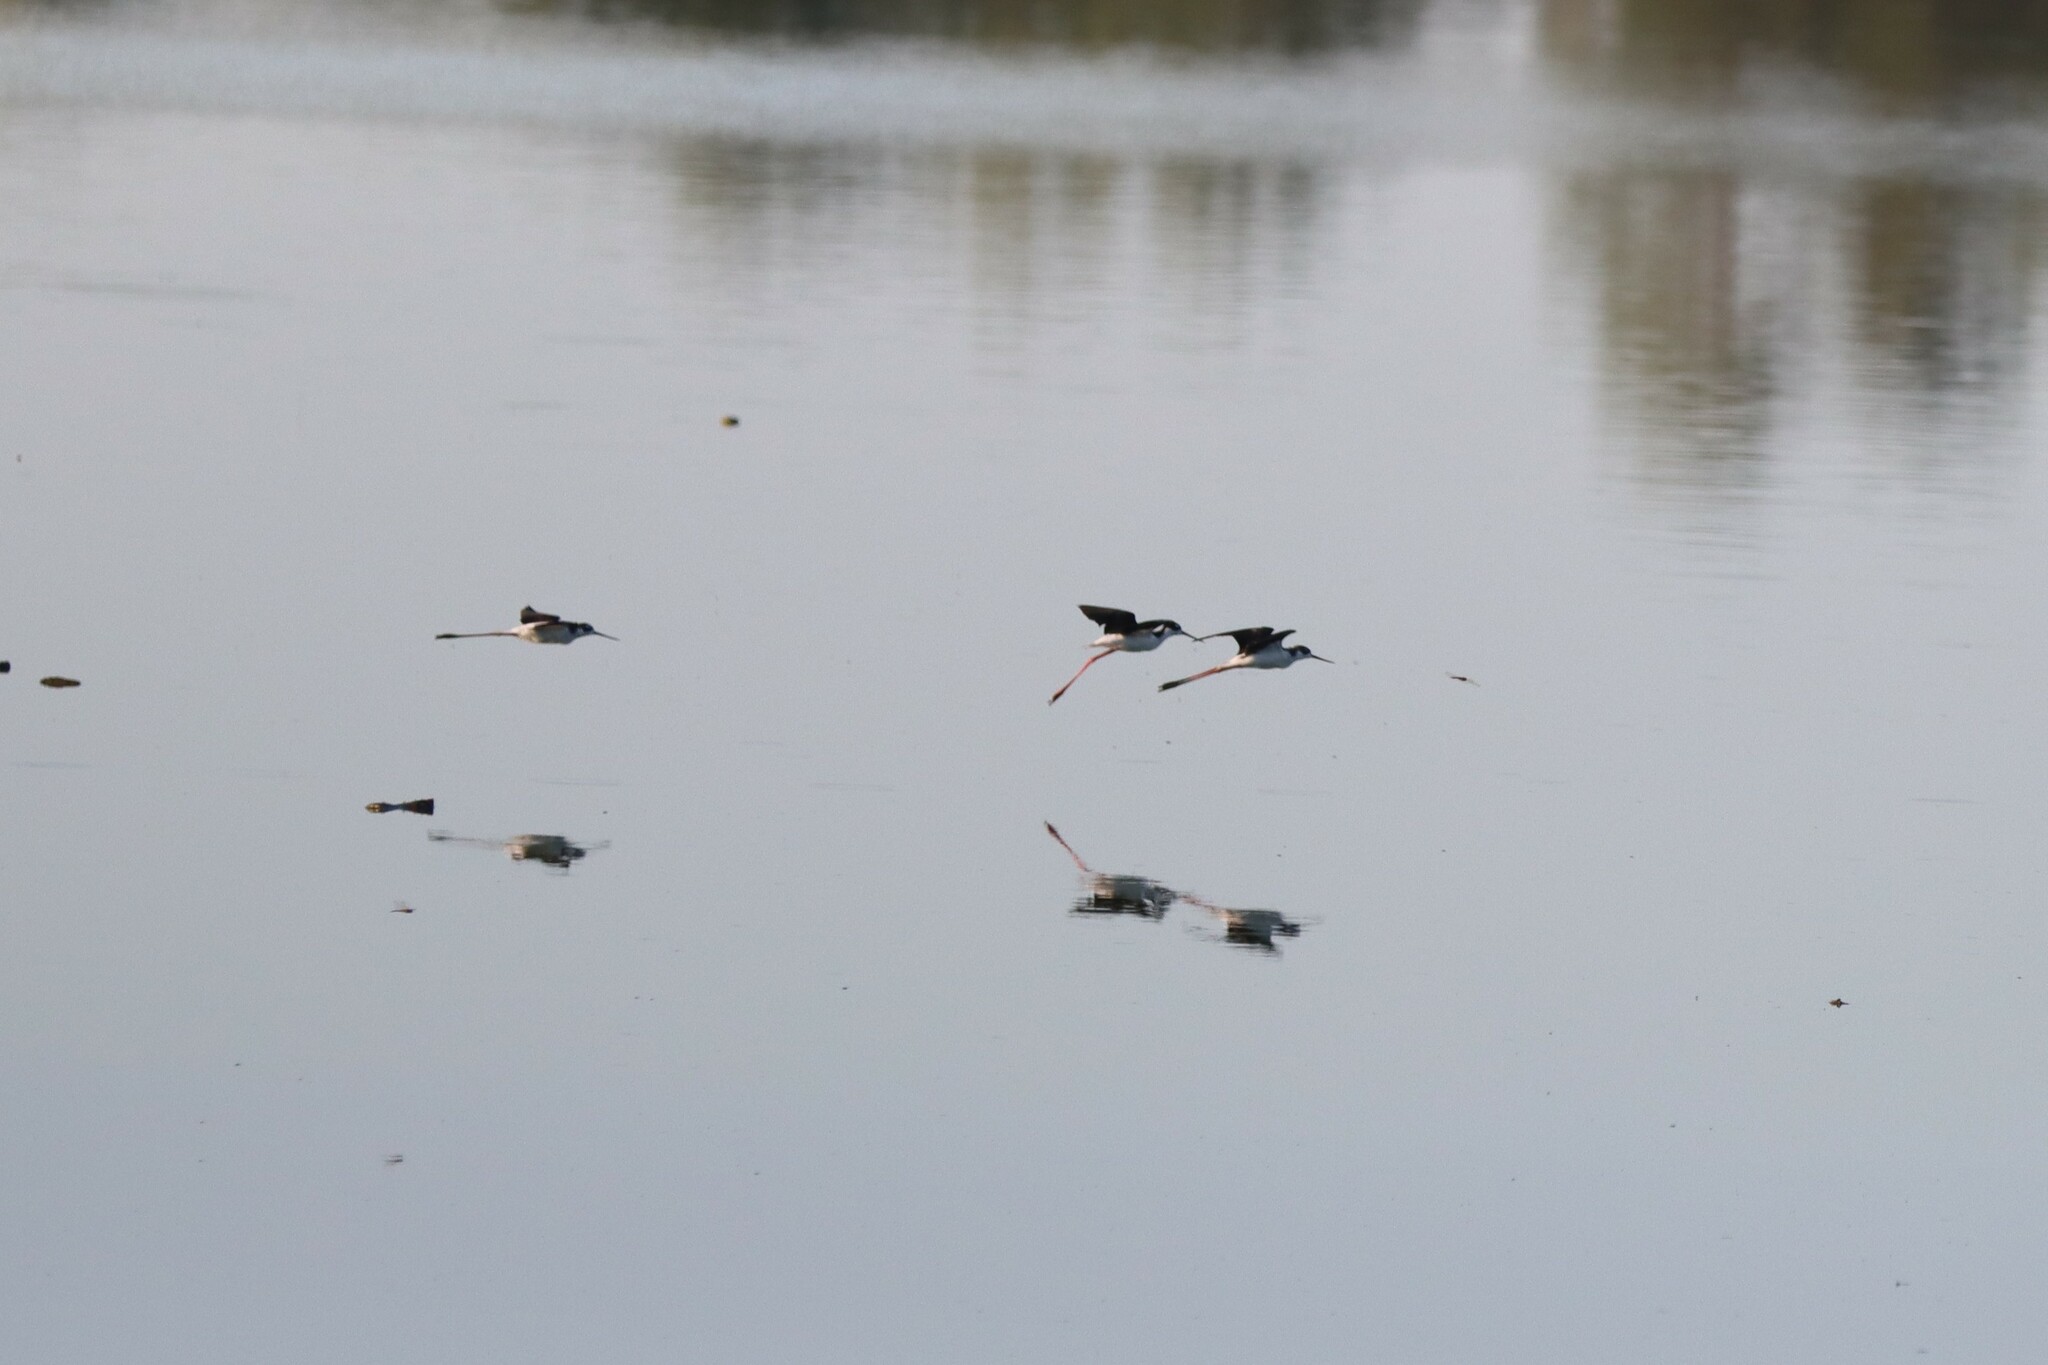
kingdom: Animalia
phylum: Chordata
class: Aves
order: Charadriiformes
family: Recurvirostridae
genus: Himantopus
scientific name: Himantopus mexicanus
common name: Black-necked stilt
